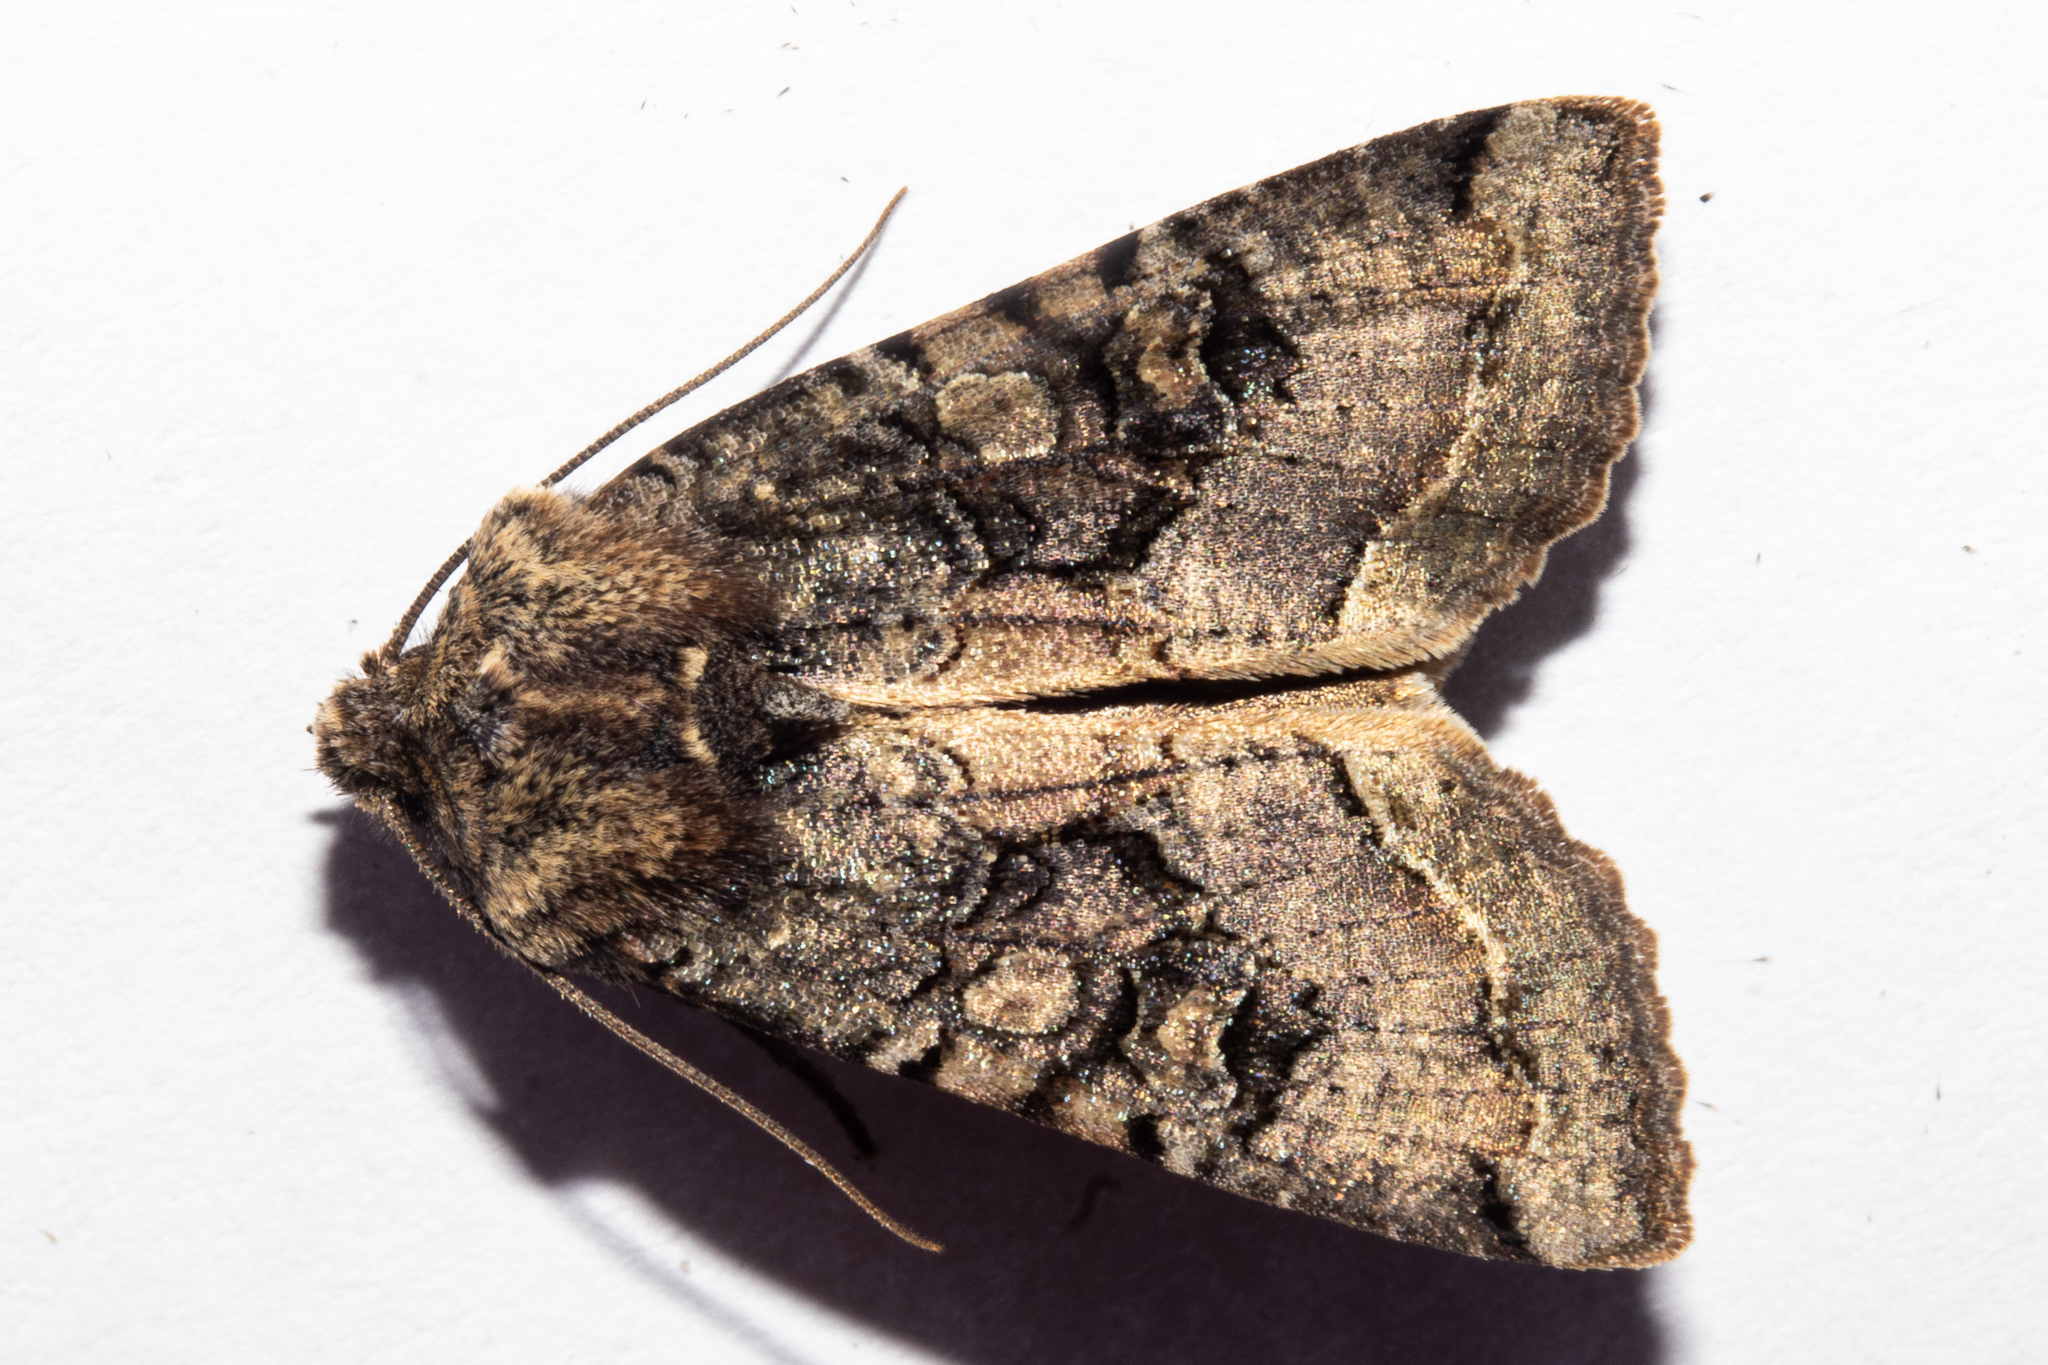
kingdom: Animalia
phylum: Arthropoda
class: Insecta
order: Lepidoptera
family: Noctuidae
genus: Meterana
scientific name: Meterana tartaraea
